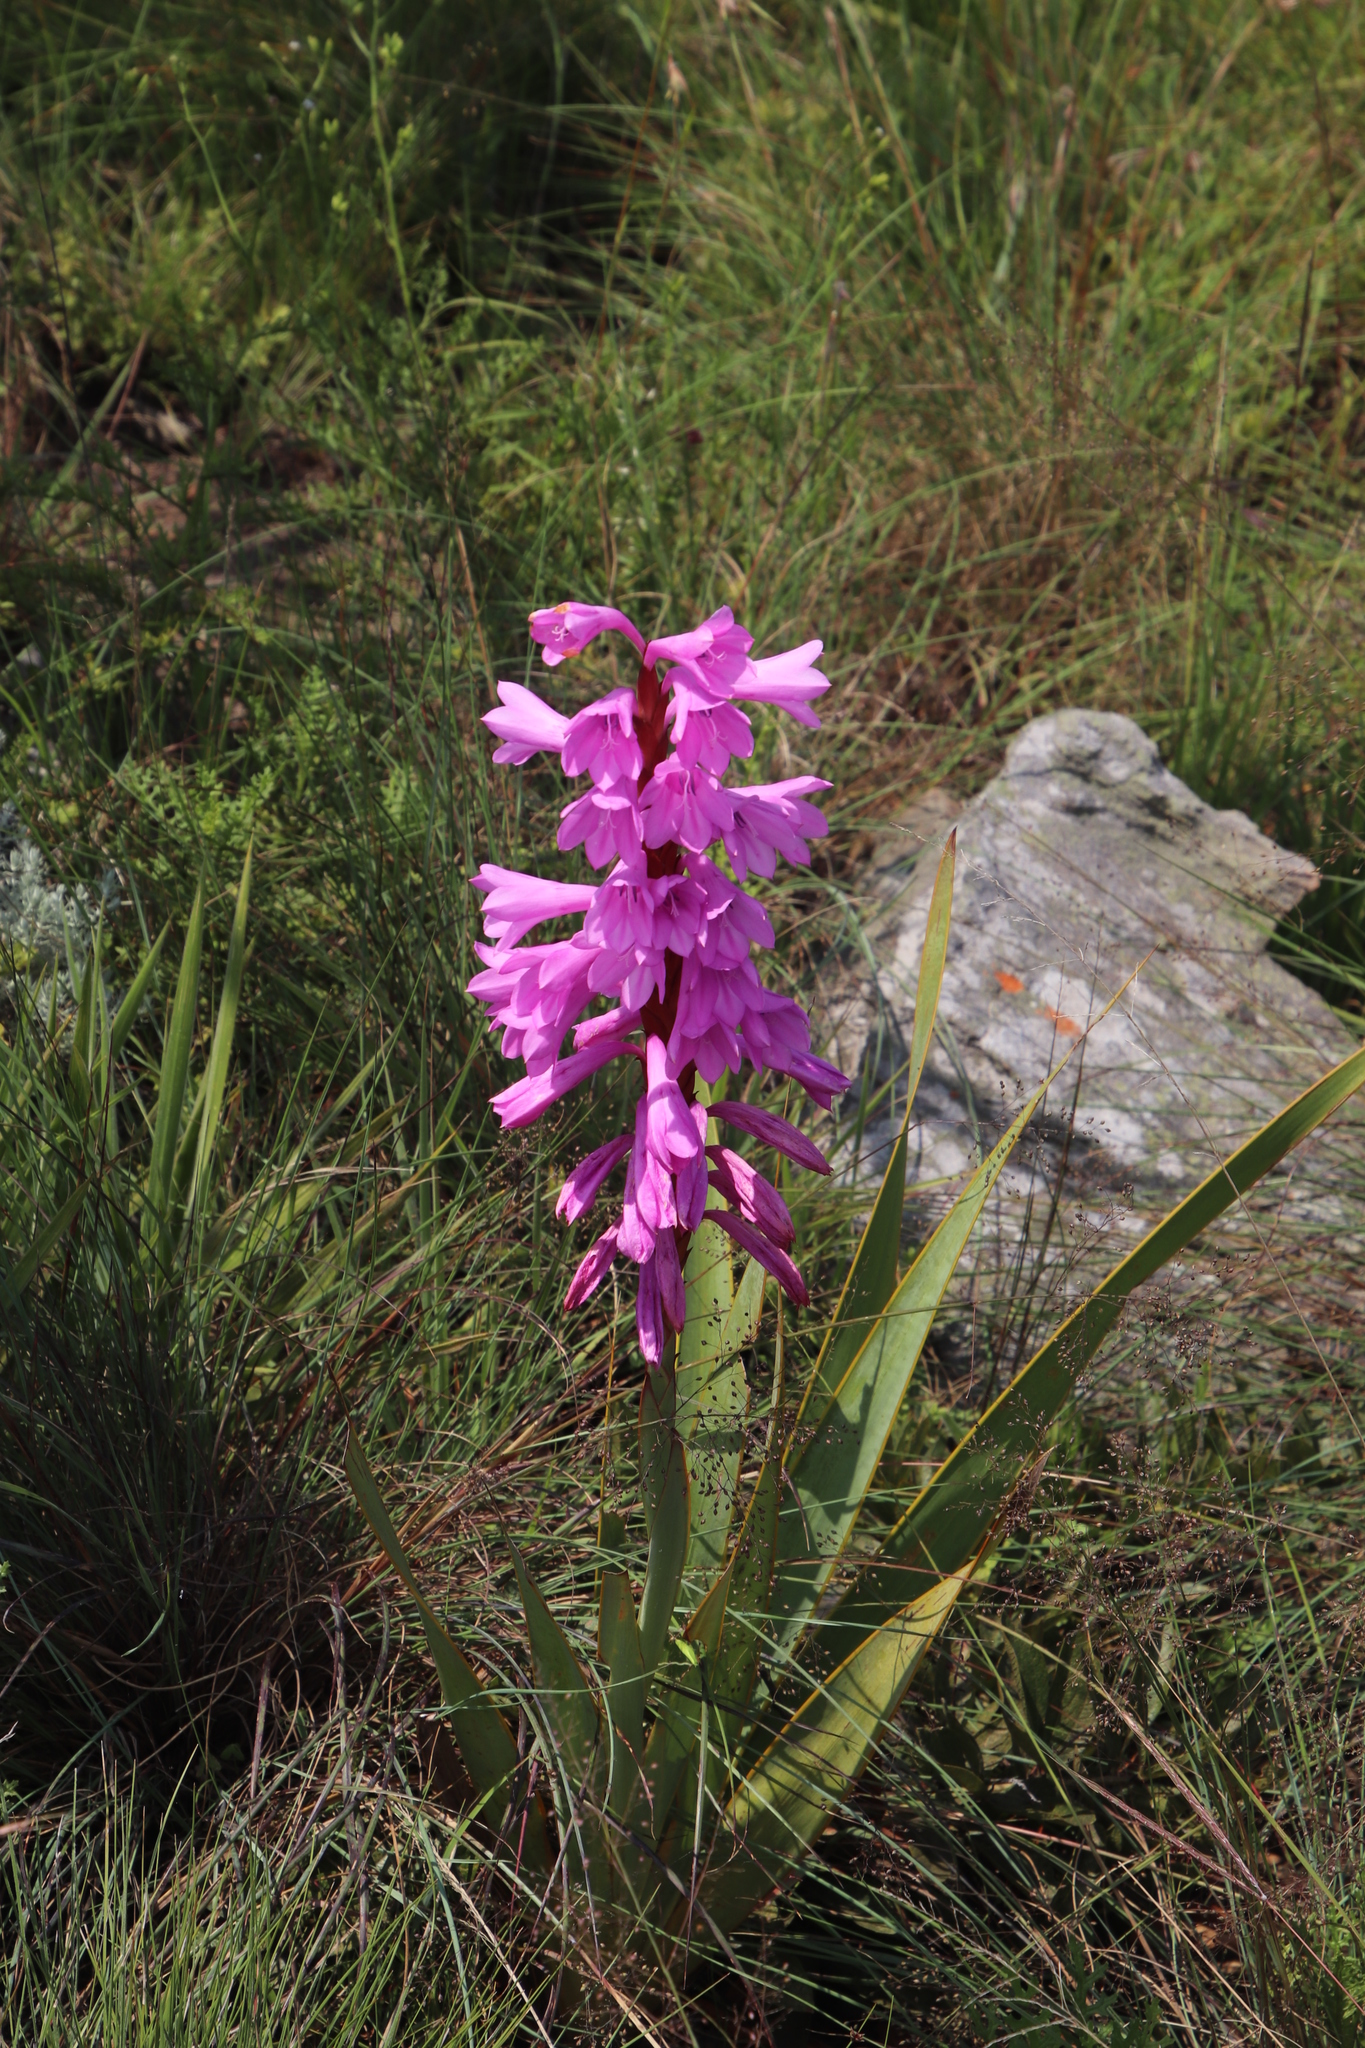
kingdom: Plantae
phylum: Tracheophyta
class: Liliopsida
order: Asparagales
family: Iridaceae
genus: Watsonia
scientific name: Watsonia pulchra
